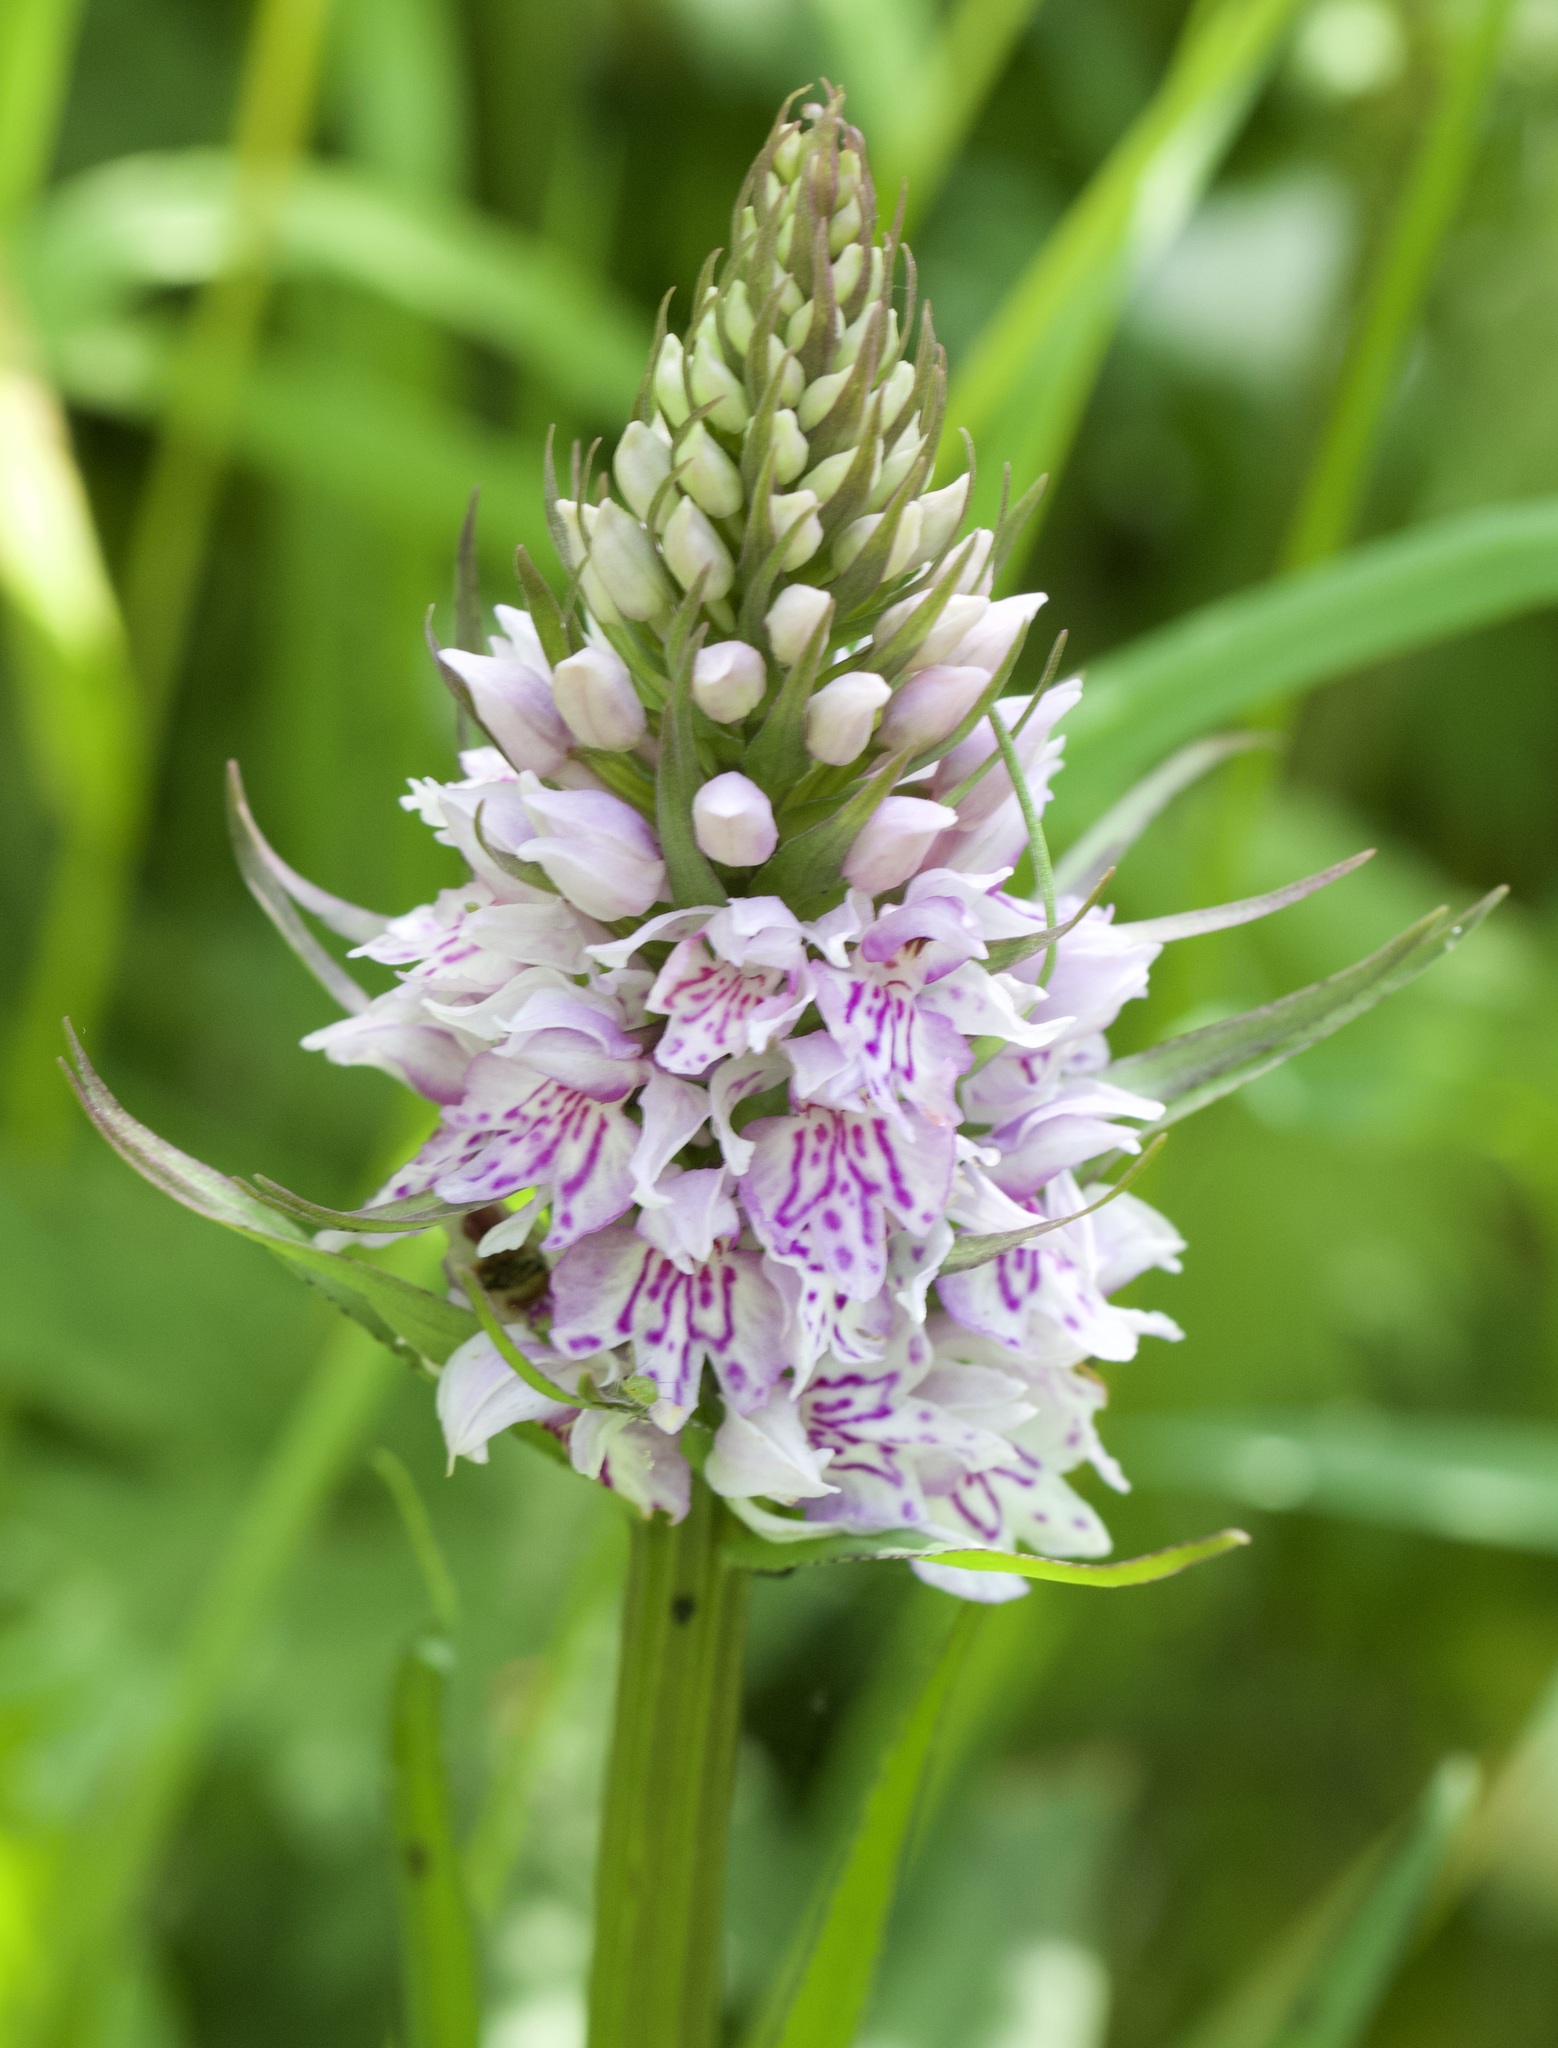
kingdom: Plantae
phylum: Tracheophyta
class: Liliopsida
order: Asparagales
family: Orchidaceae
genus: Dactylorhiza
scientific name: Dactylorhiza maculata
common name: Heath spotted-orchid
